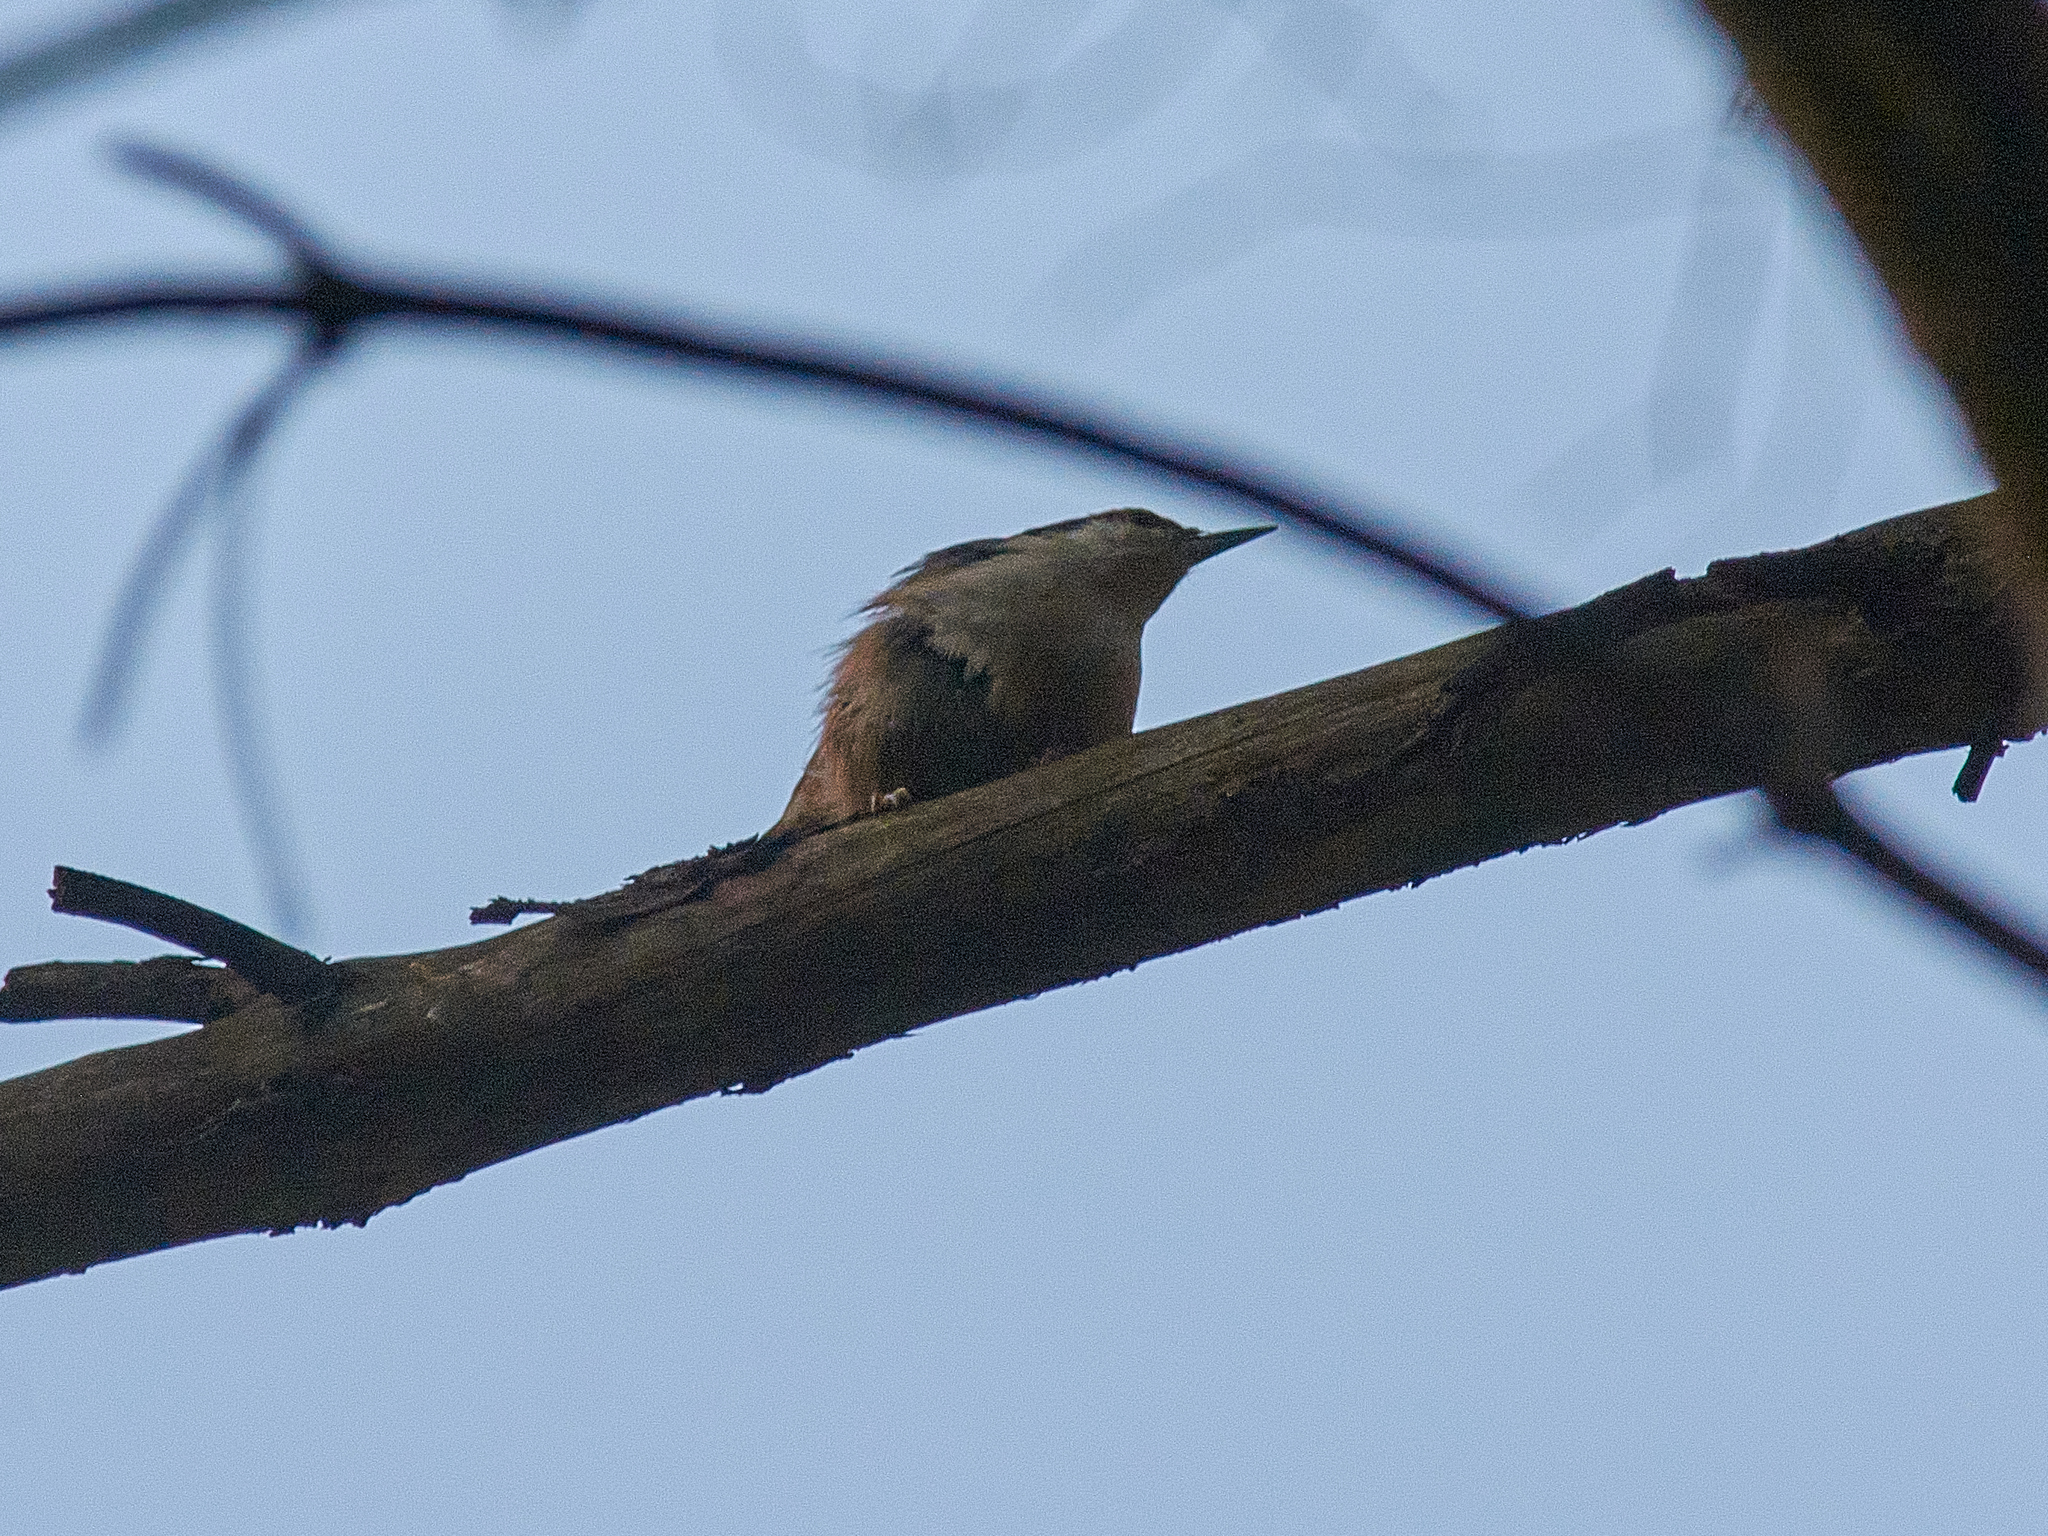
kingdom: Animalia
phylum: Chordata
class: Aves
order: Passeriformes
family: Sittidae
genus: Sitta
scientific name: Sitta europaea
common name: Eurasian nuthatch
